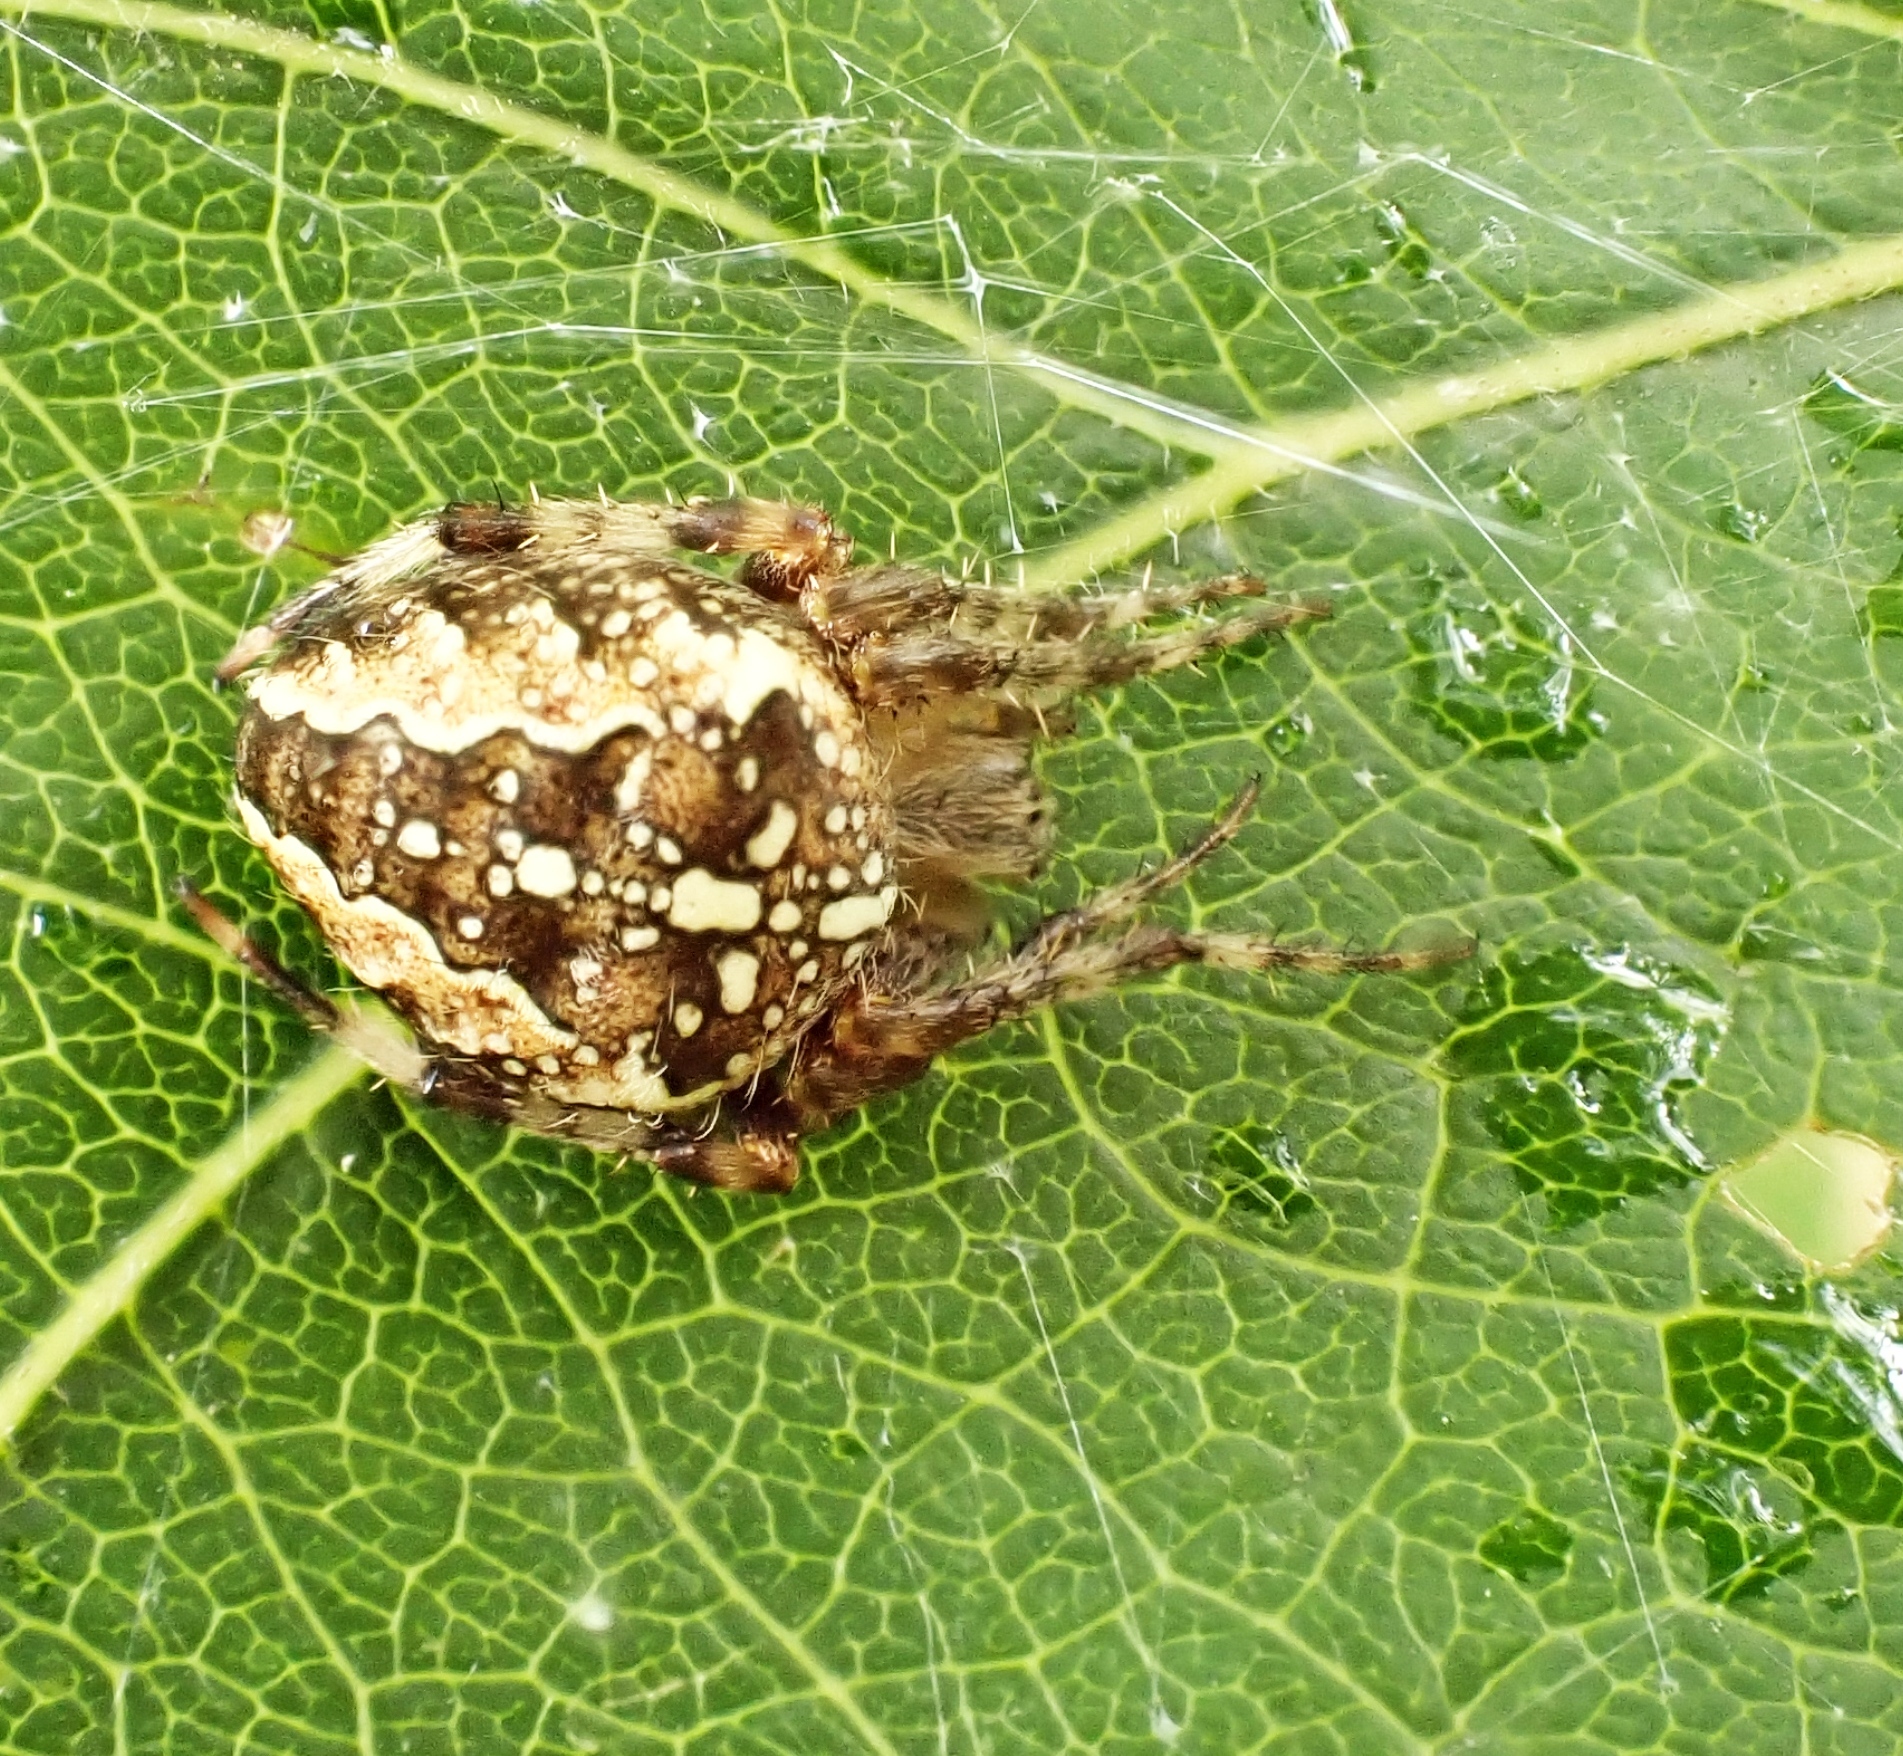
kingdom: Animalia
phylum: Arthropoda
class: Arachnida
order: Araneae
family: Araneidae
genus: Araneus
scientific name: Araneus diadematus
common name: Cross orbweaver
